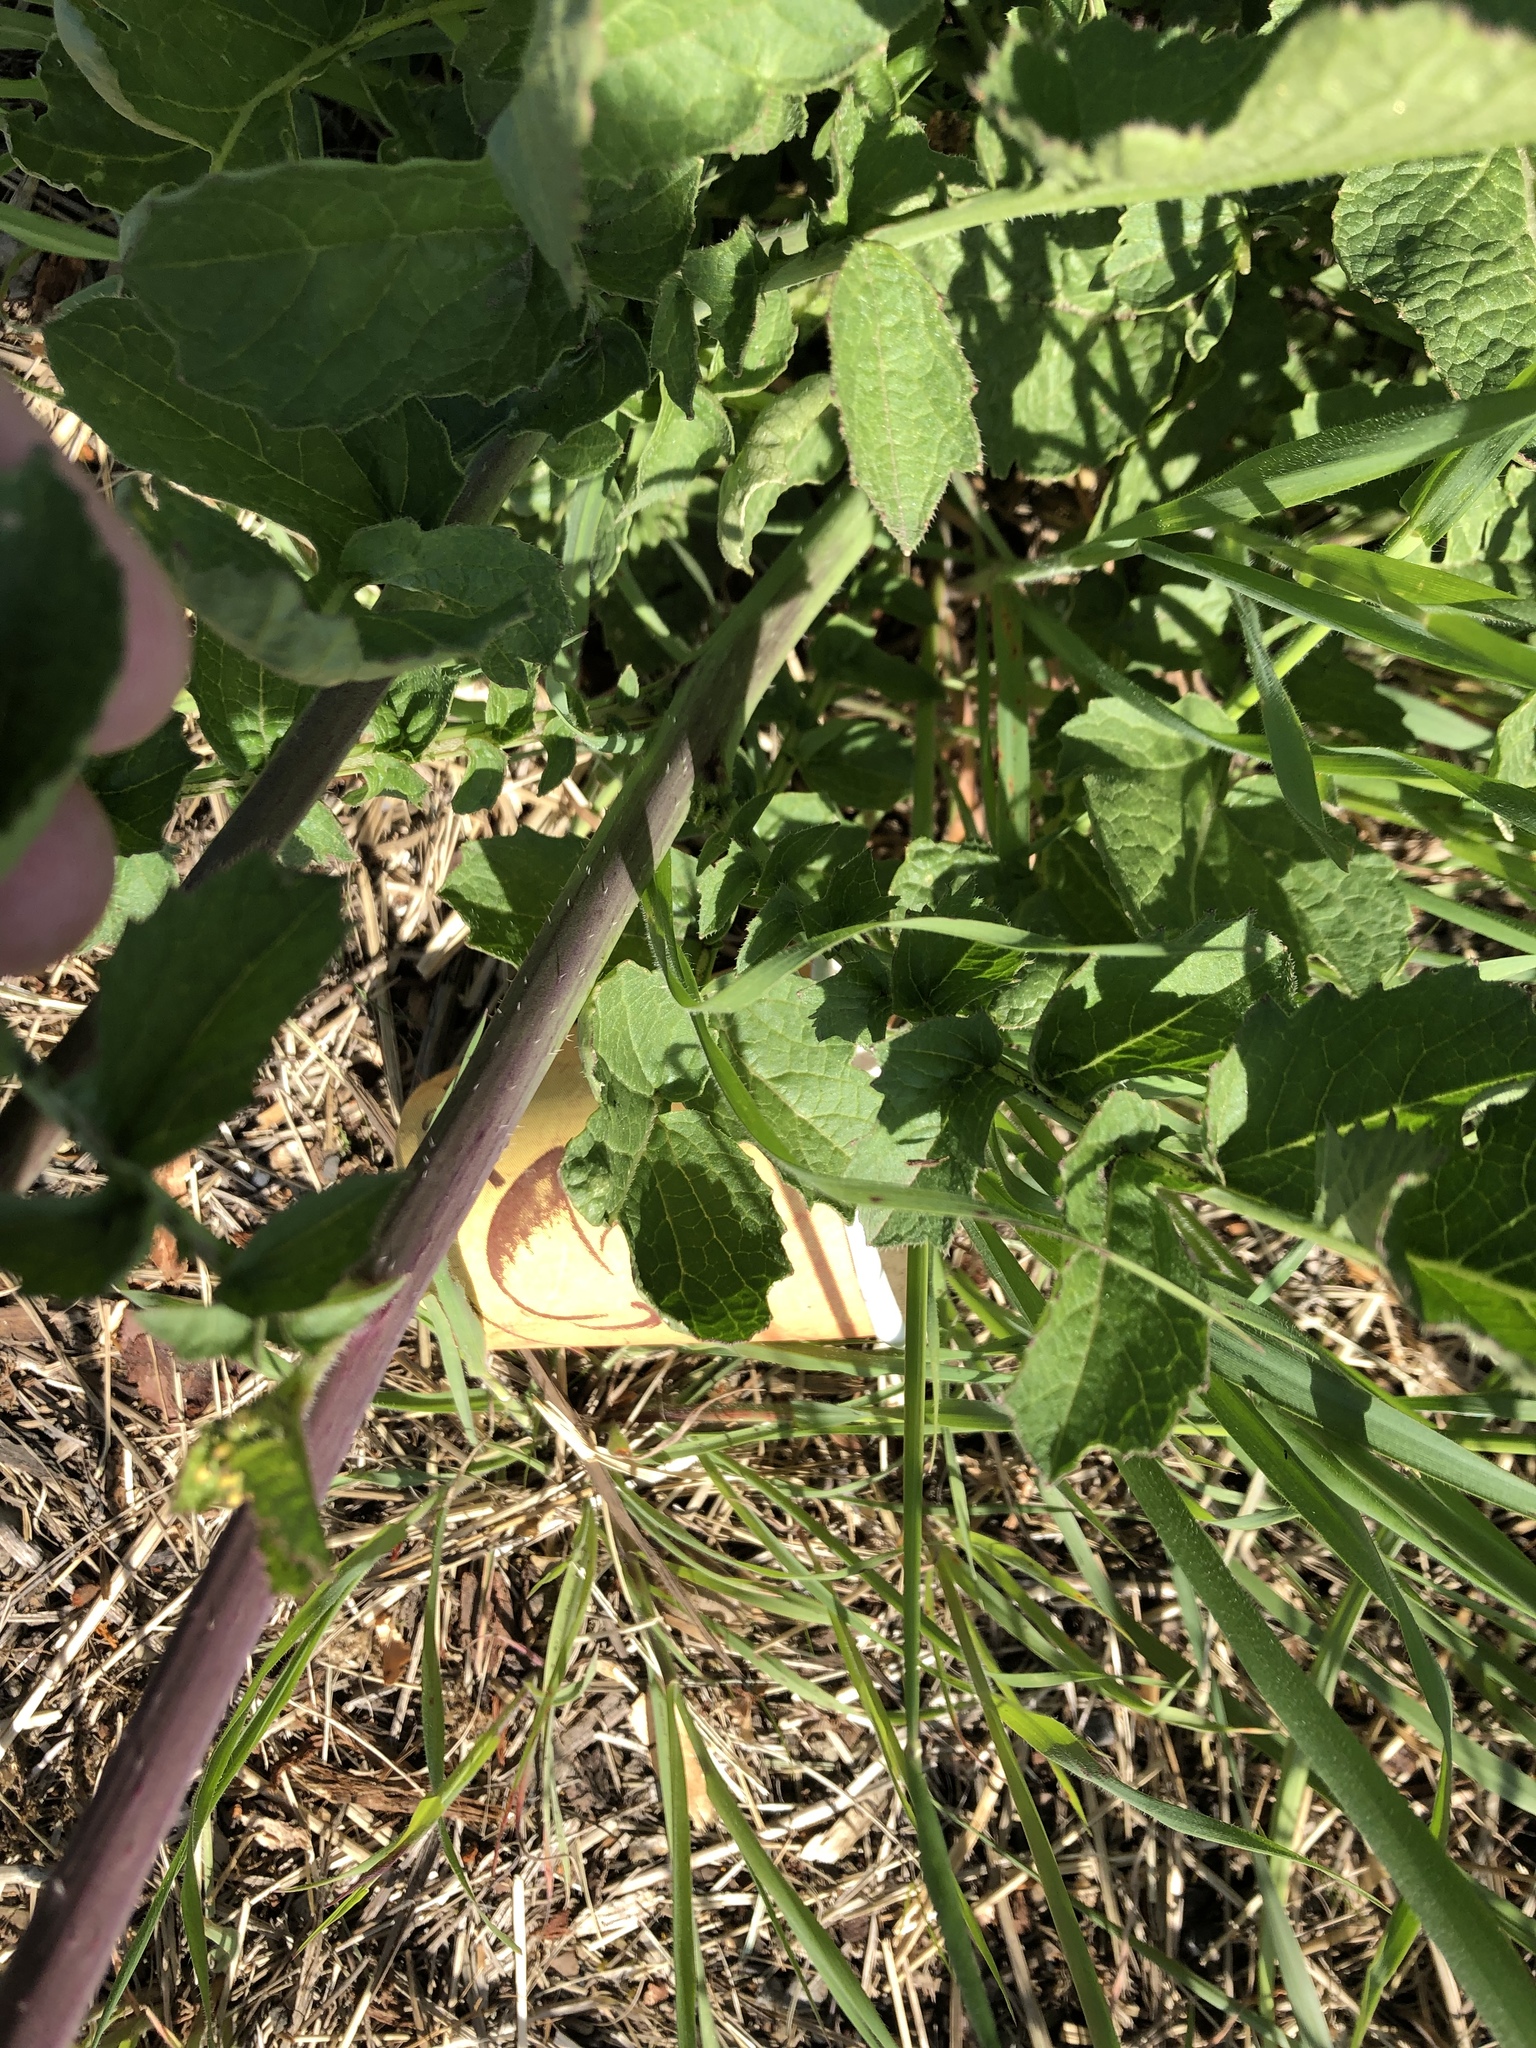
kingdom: Plantae
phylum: Tracheophyta
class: Magnoliopsida
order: Brassicales
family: Brassicaceae
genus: Raphanus
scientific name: Raphanus sativus
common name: Cultivated radish
